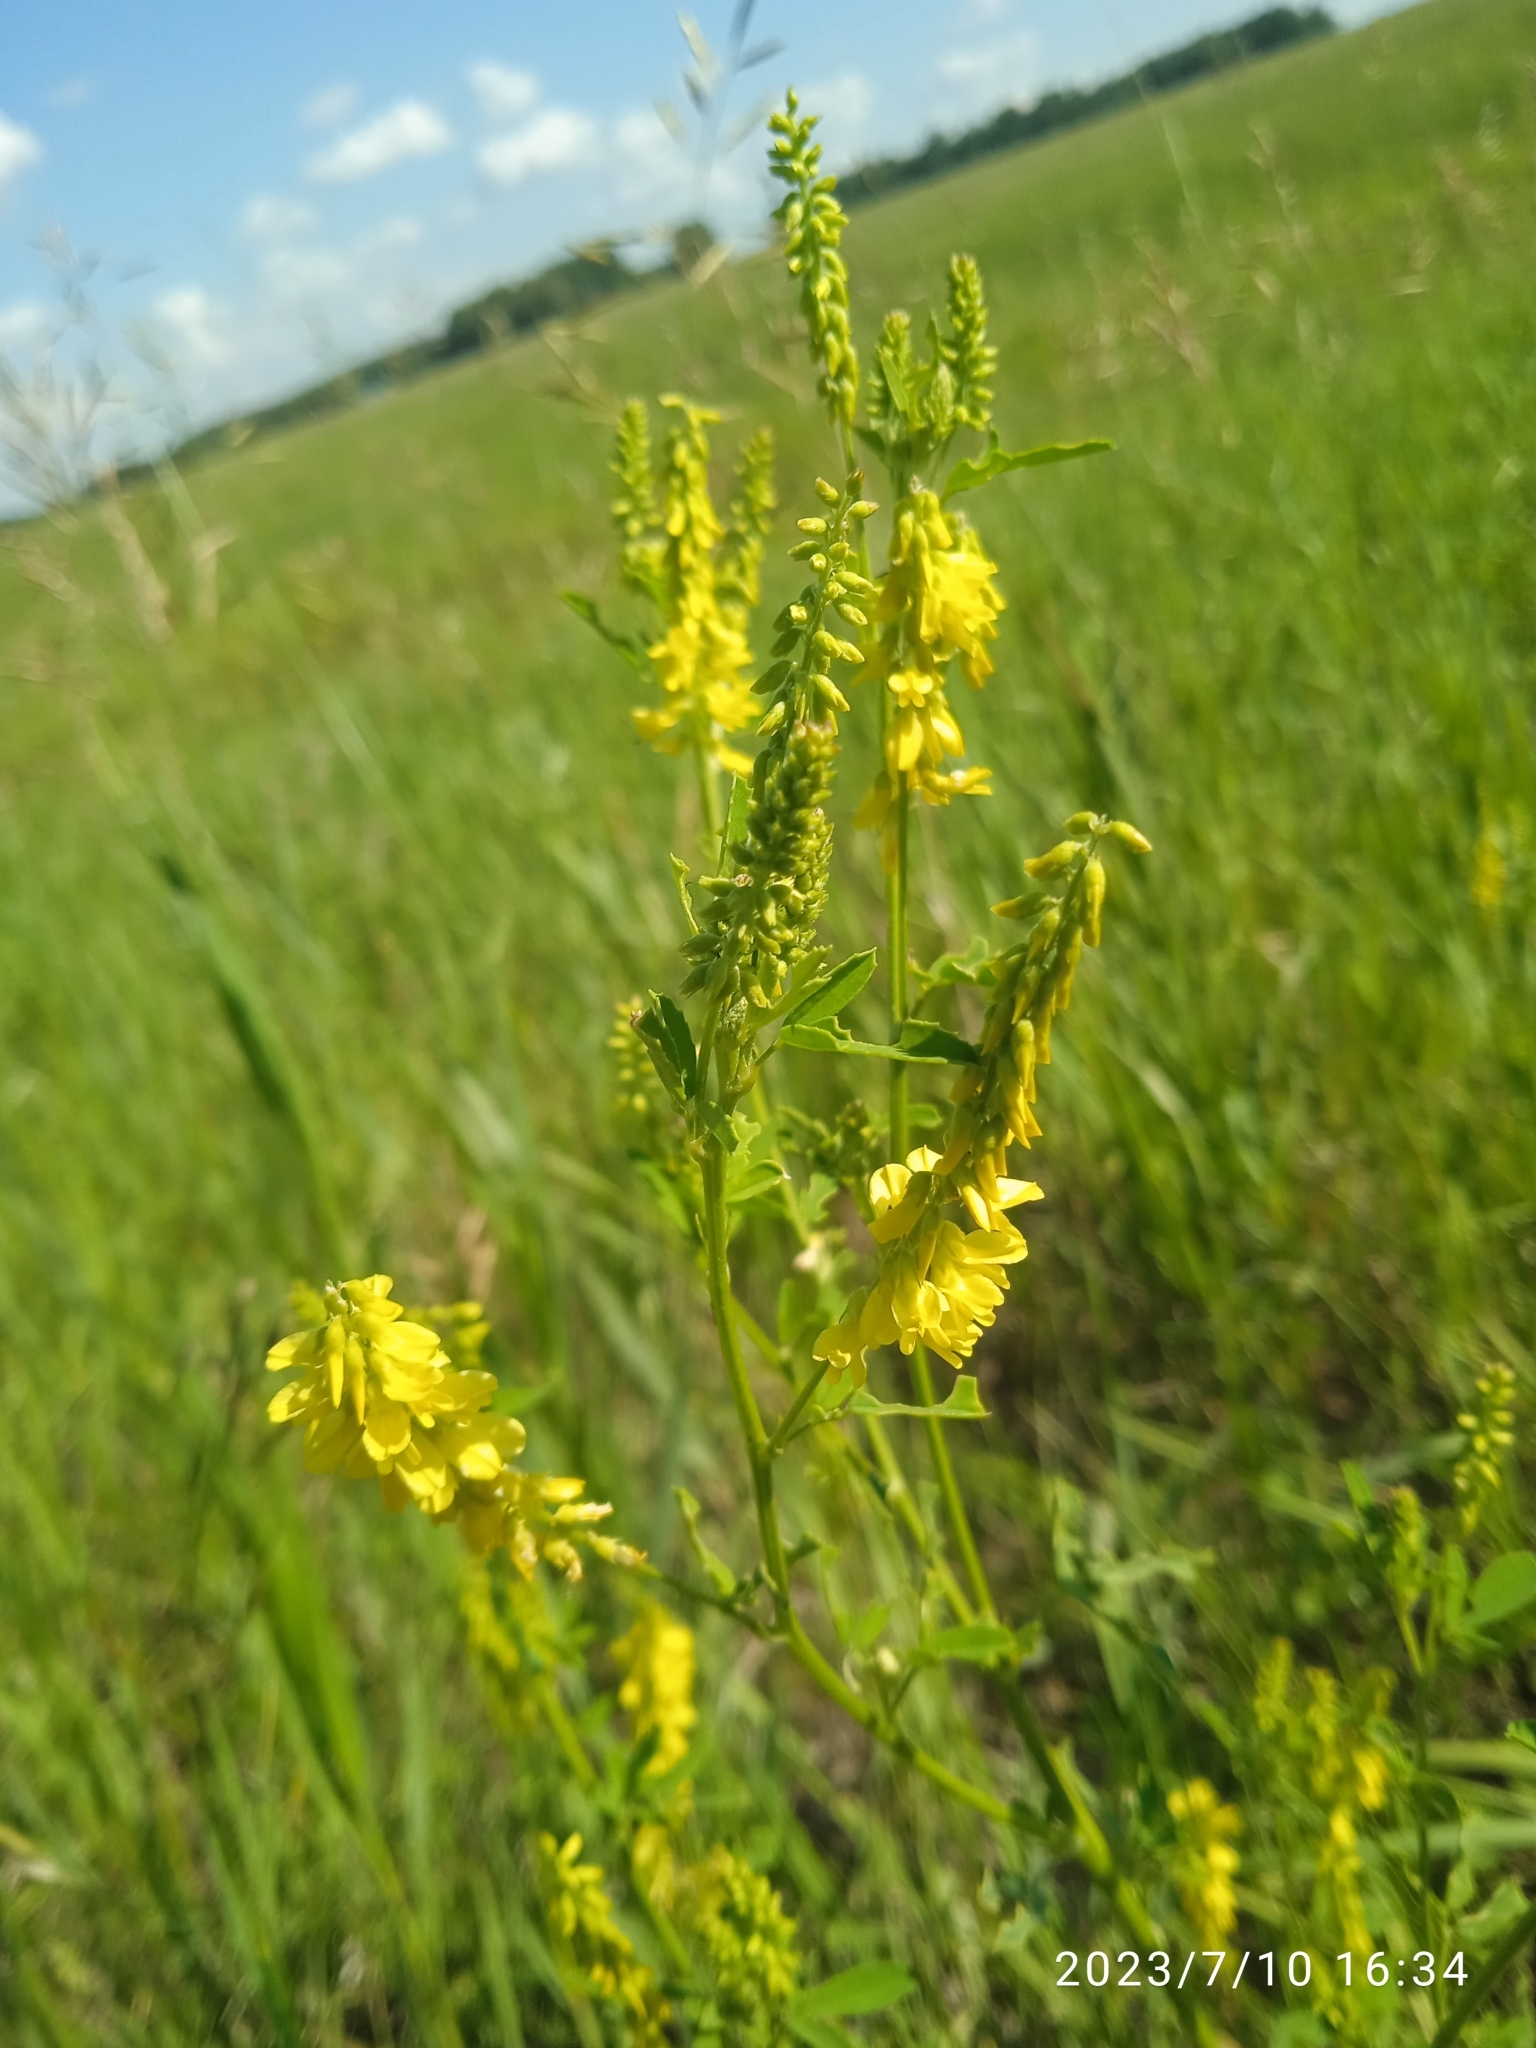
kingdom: Plantae
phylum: Tracheophyta
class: Magnoliopsida
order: Fabales
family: Fabaceae
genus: Melilotus
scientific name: Melilotus officinalis
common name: Sweetclover
